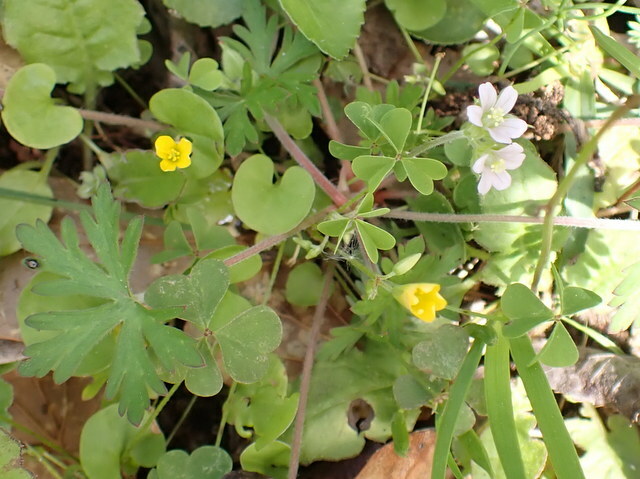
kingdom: Plantae
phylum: Tracheophyta
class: Magnoliopsida
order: Geraniales
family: Geraniaceae
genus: Geranium
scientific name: Geranium carolinianum
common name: Carolina crane's-bill
